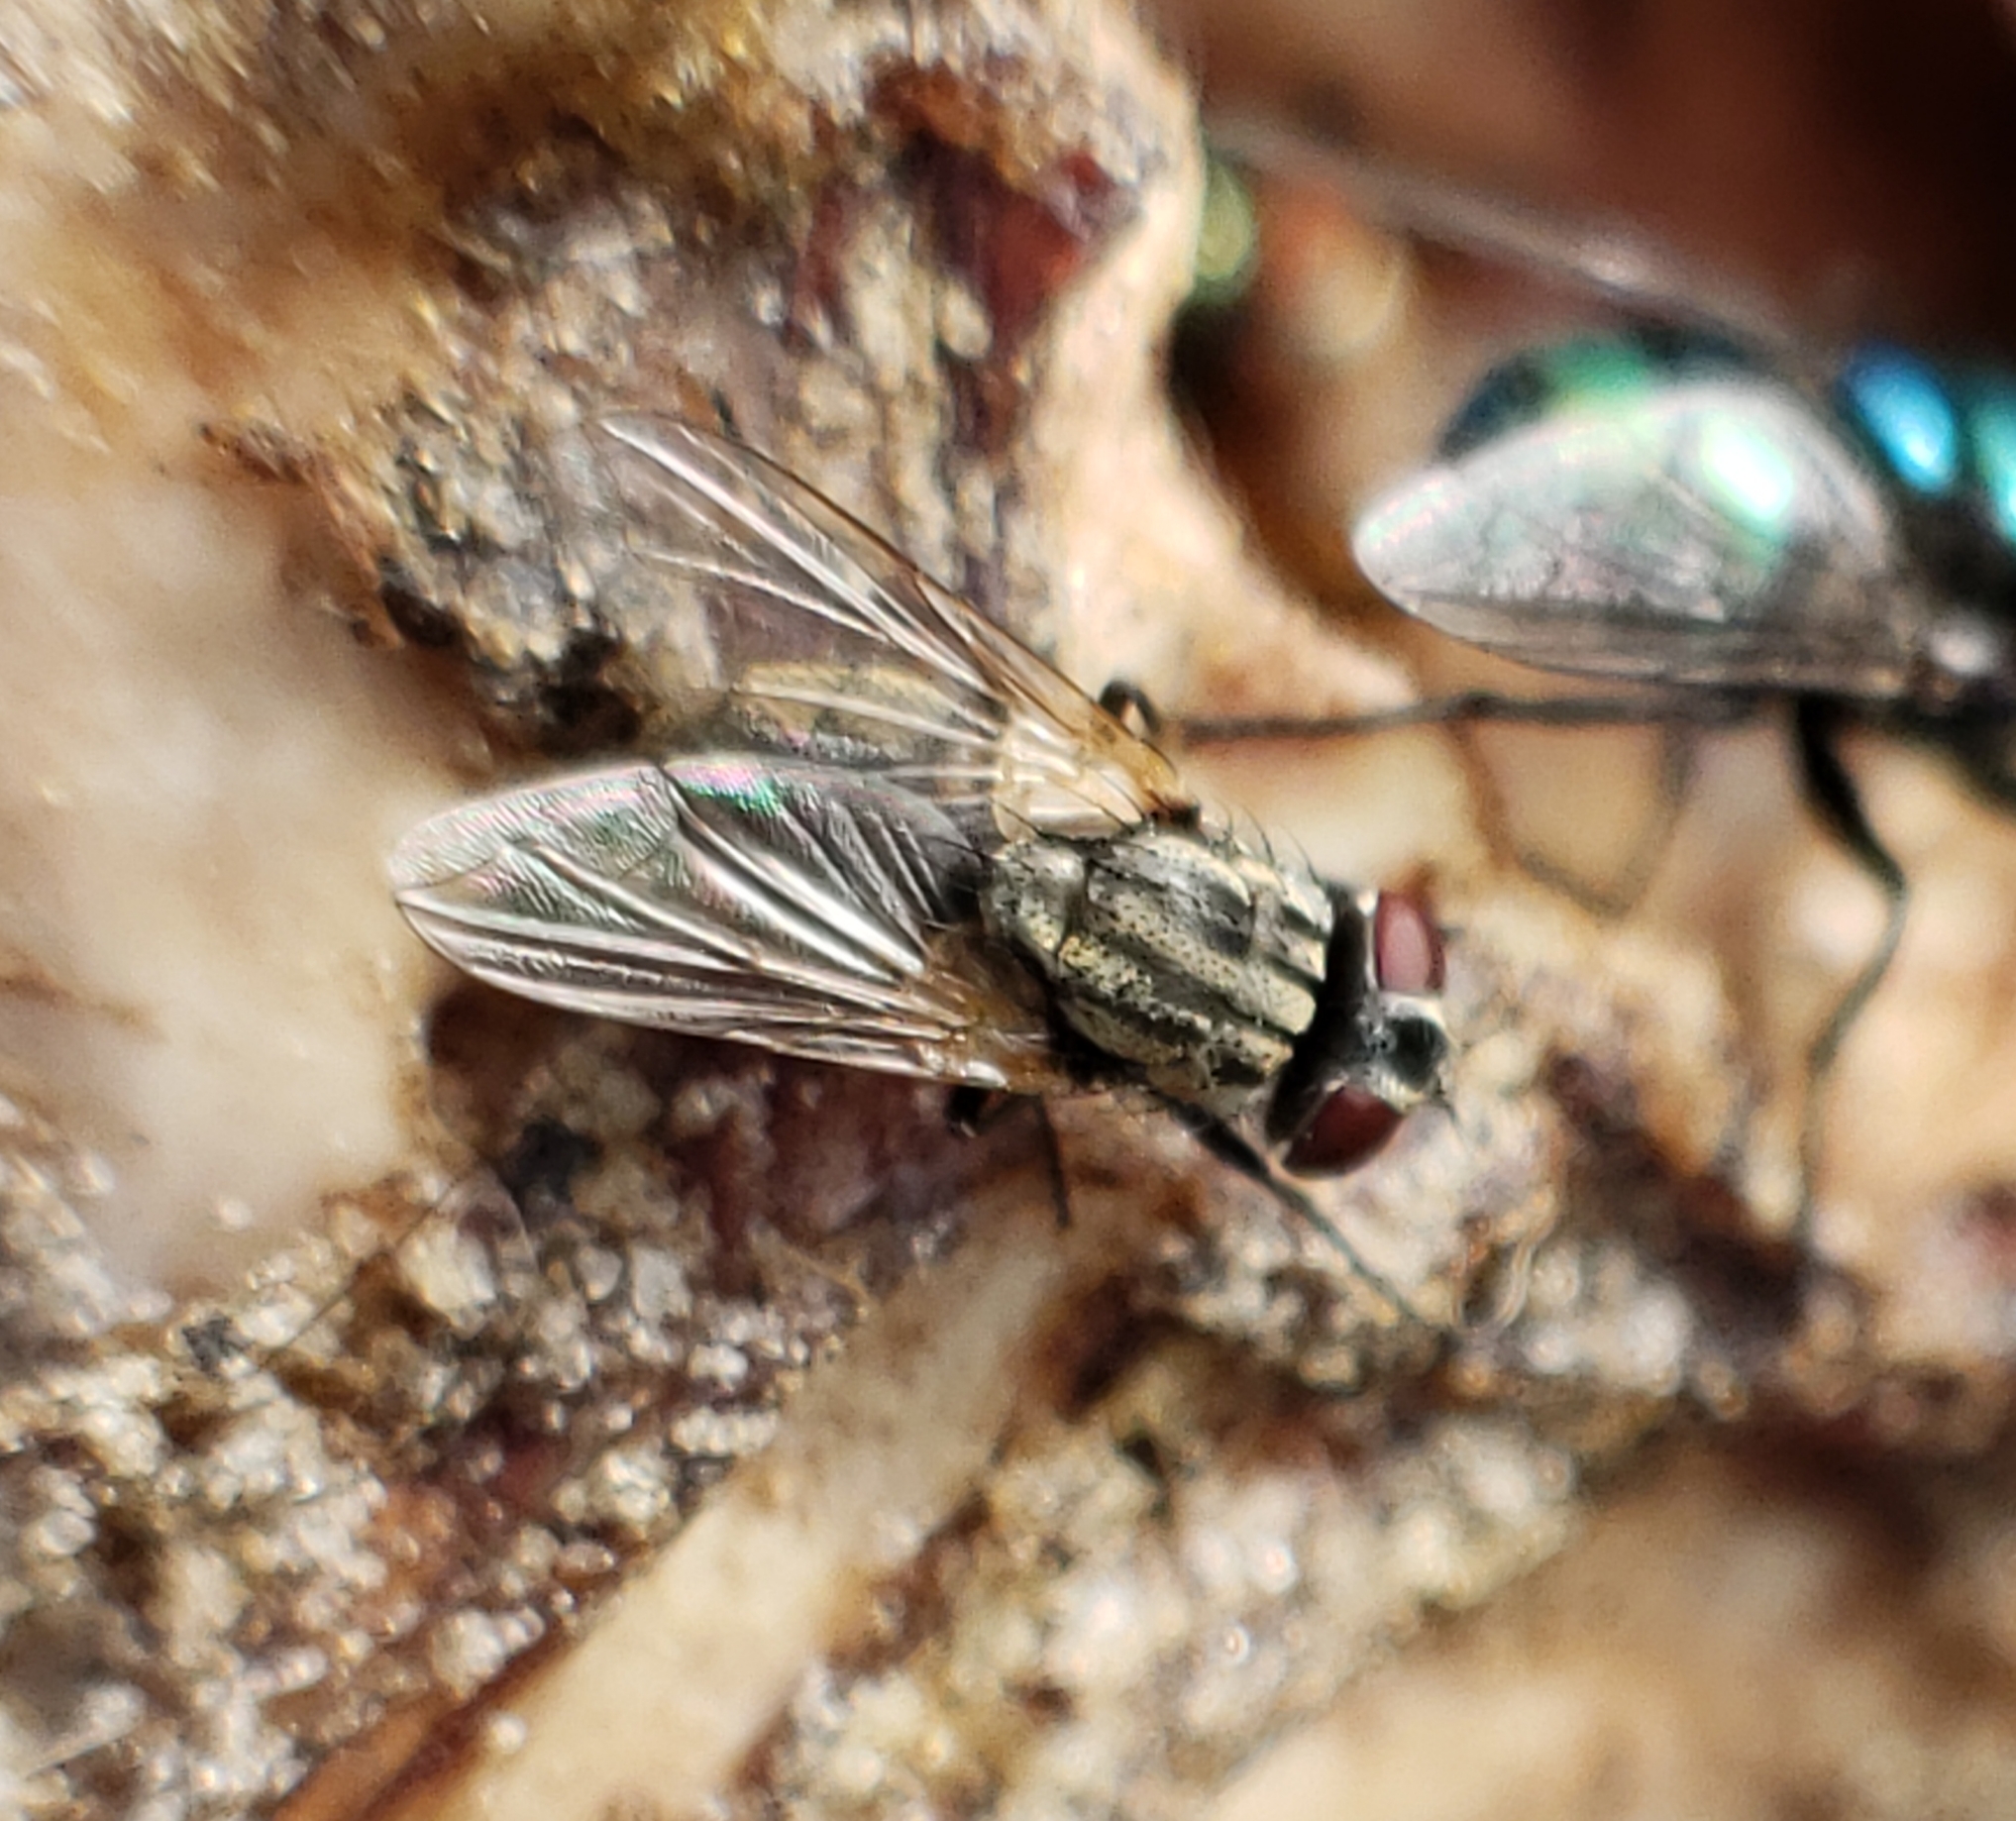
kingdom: Animalia
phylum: Arthropoda
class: Insecta
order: Diptera
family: Muscidae
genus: Musca
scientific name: Musca domestica
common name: House fly
